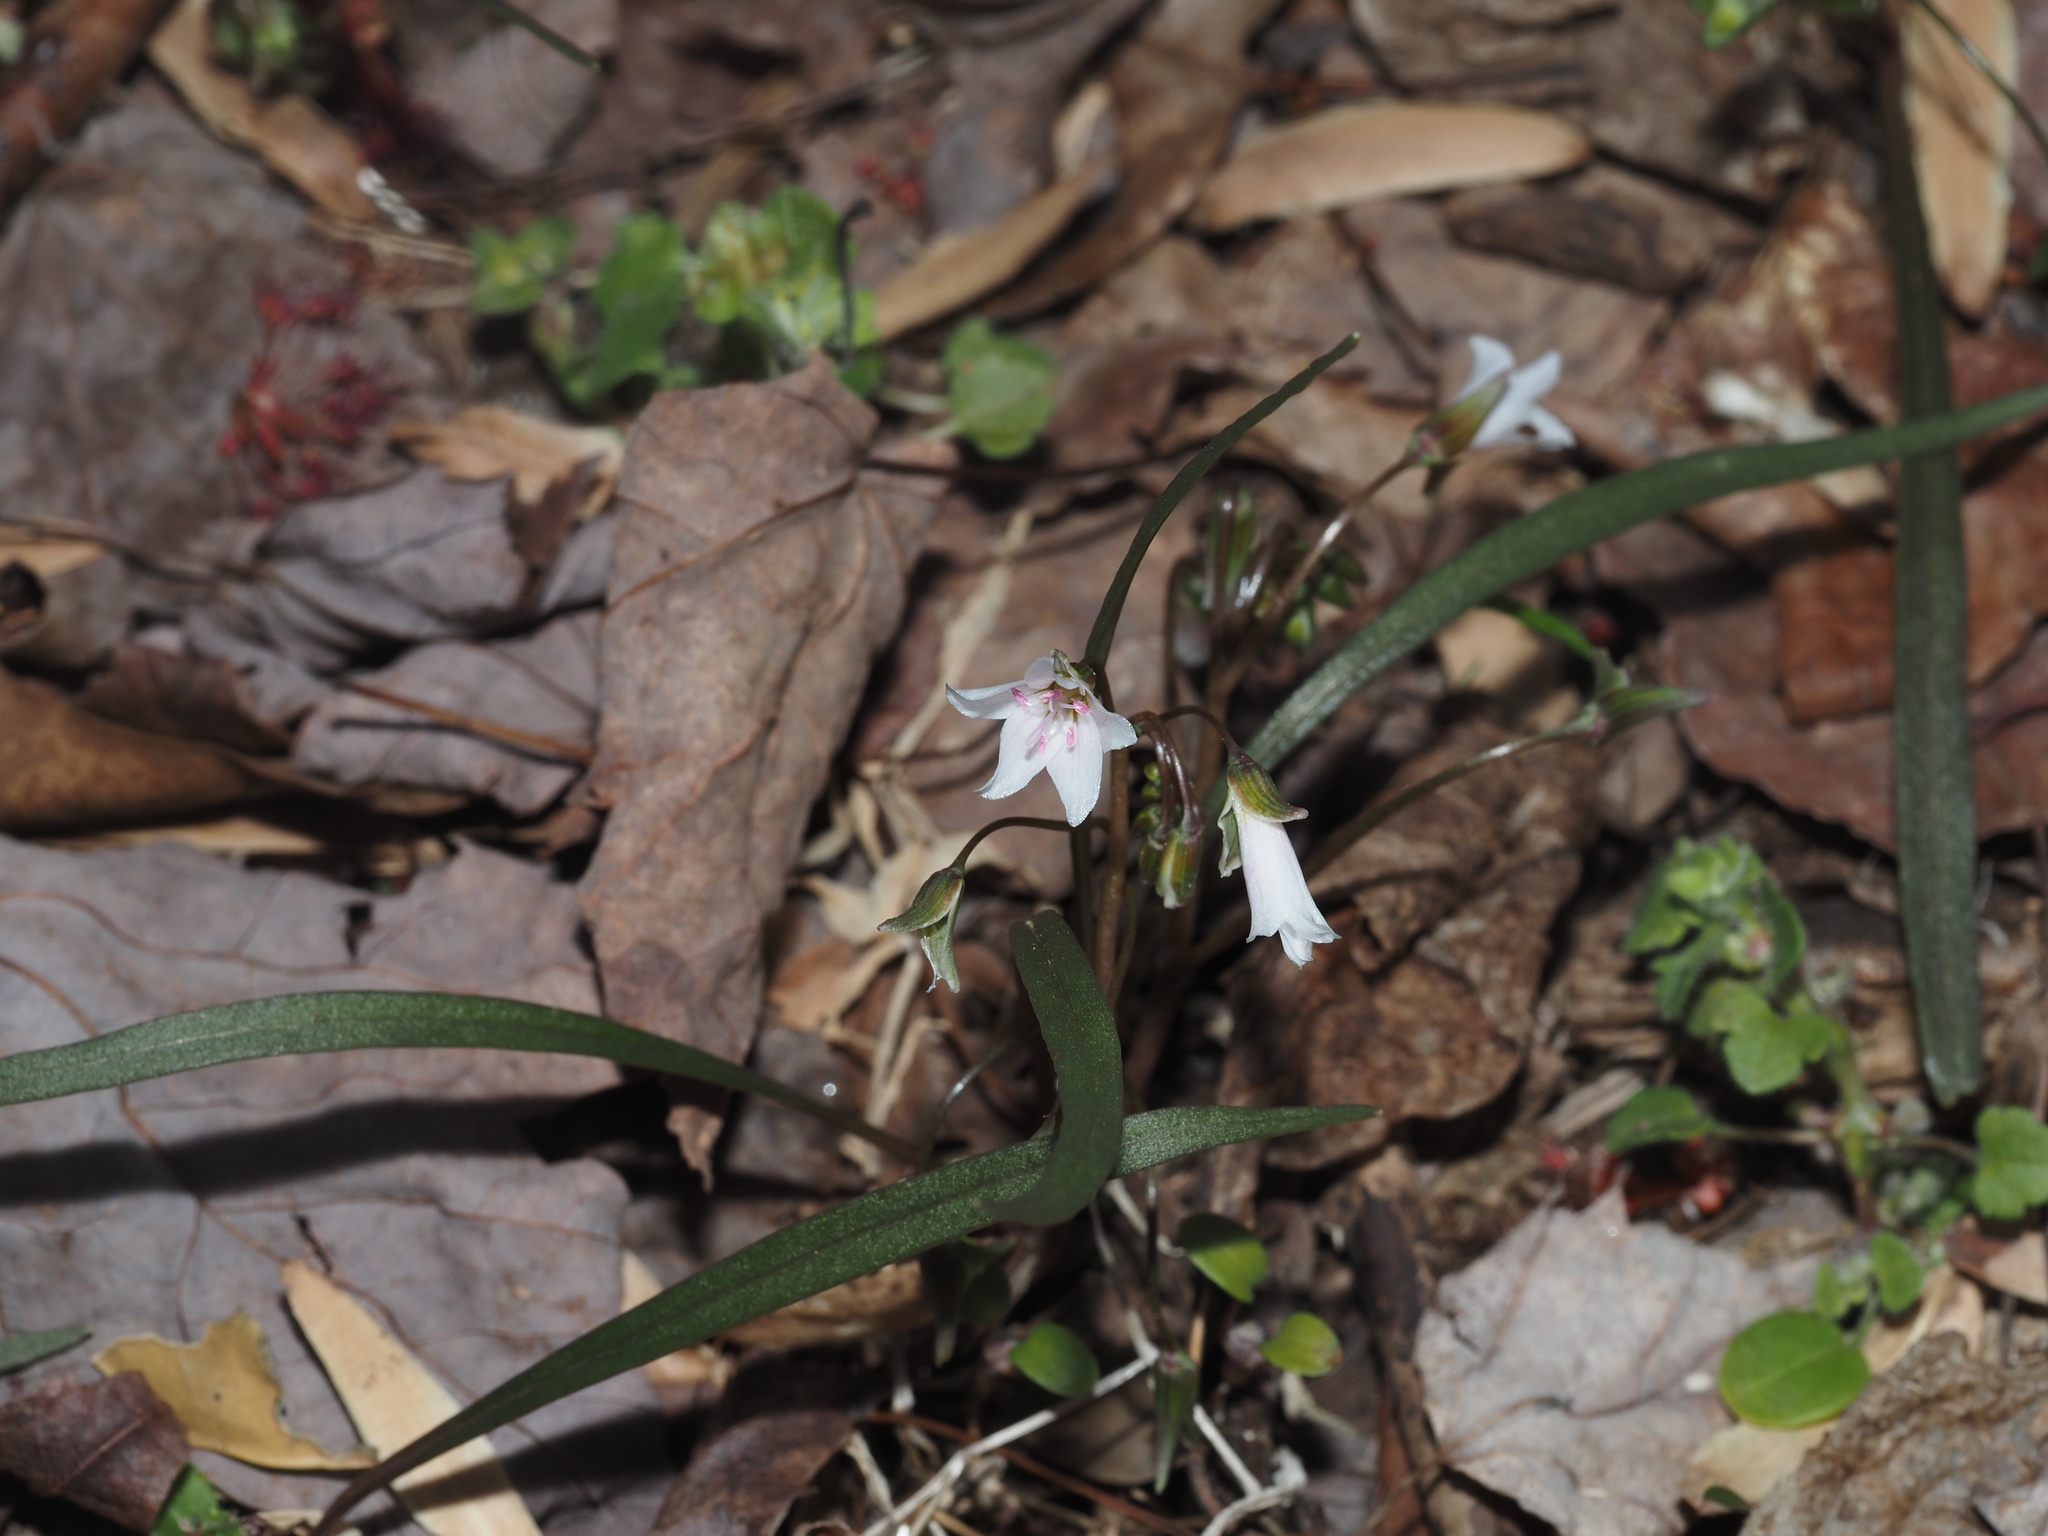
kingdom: Plantae
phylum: Tracheophyta
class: Magnoliopsida
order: Caryophyllales
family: Montiaceae
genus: Claytonia
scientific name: Claytonia virginica
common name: Virginia springbeauty
